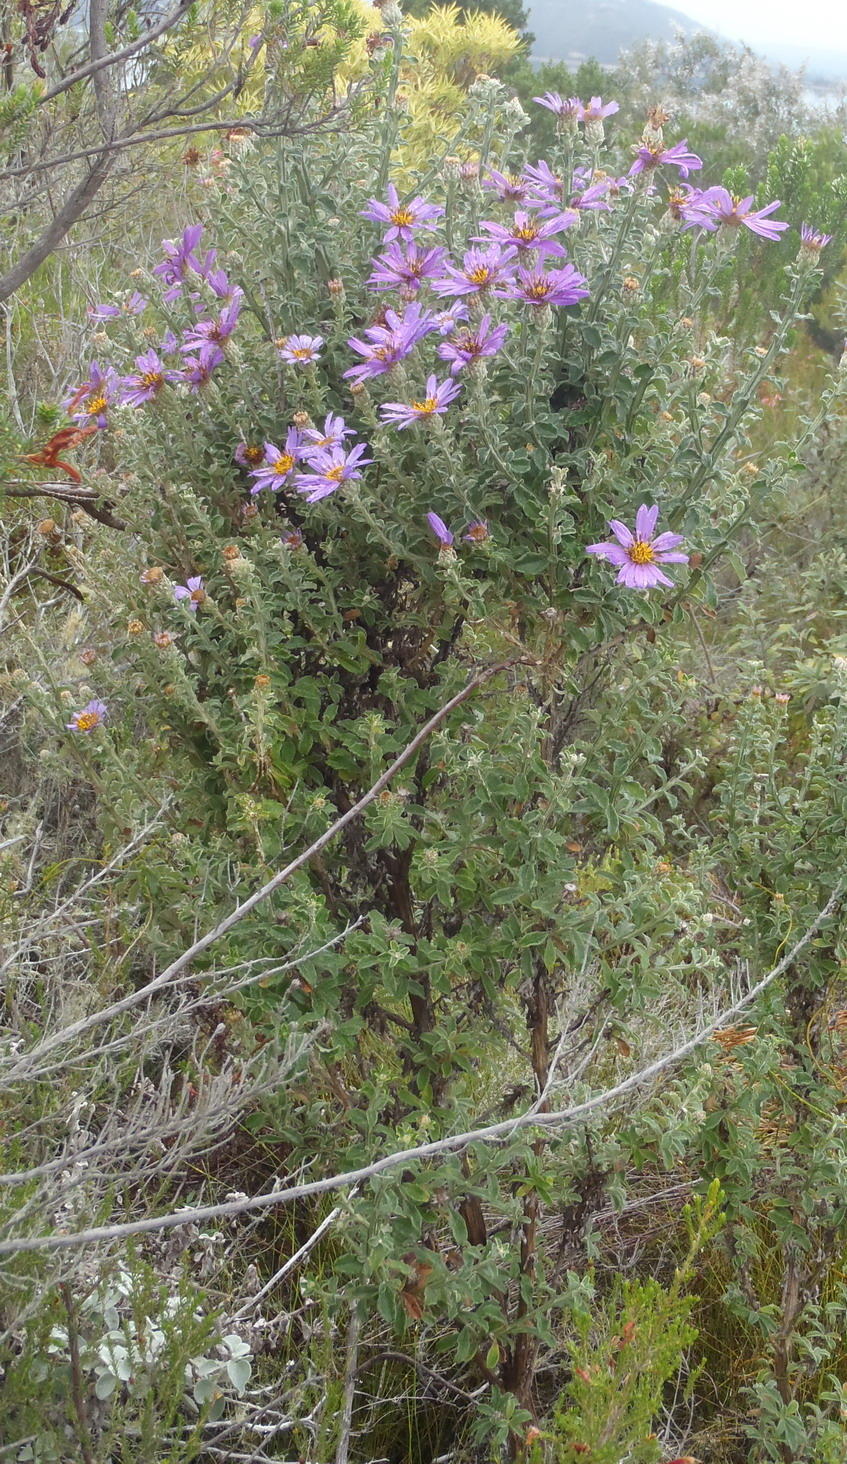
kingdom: Plantae
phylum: Tracheophyta
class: Magnoliopsida
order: Asterales
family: Asteraceae
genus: Printzia
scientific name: Printzia polifolia
